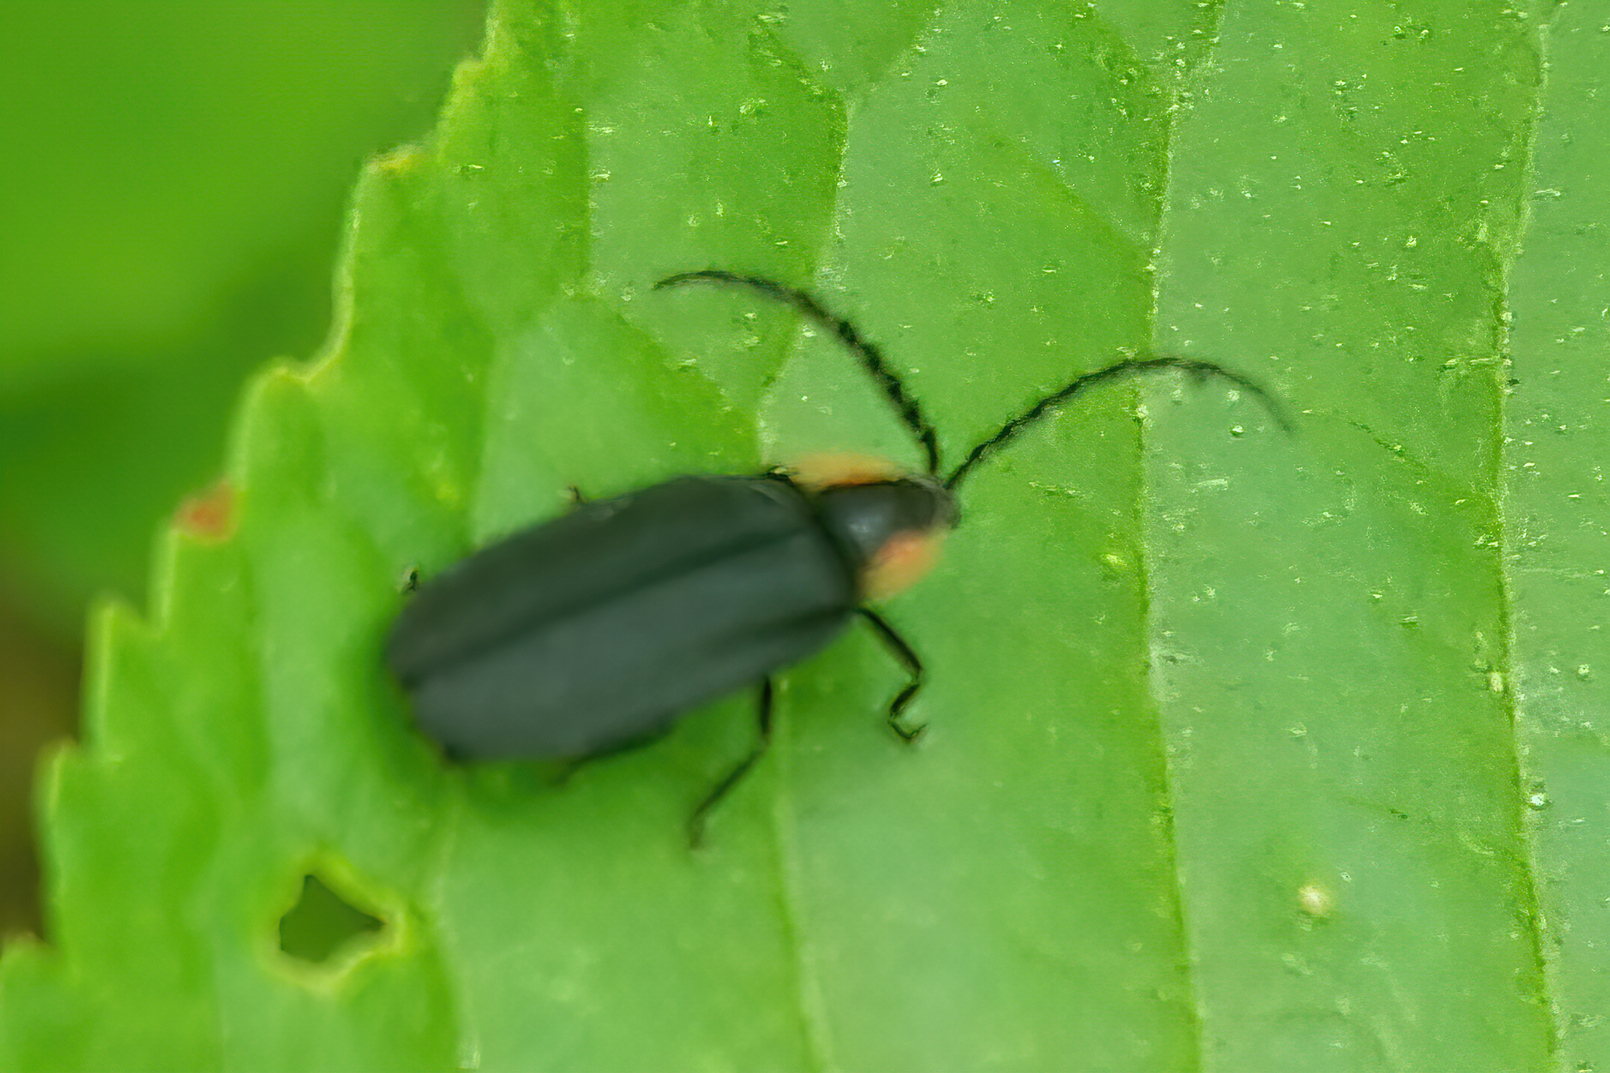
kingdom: Animalia
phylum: Arthropoda
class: Insecta
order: Coleoptera
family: Lampyridae
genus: Lucidota
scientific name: Lucidota atra
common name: Black firefly
